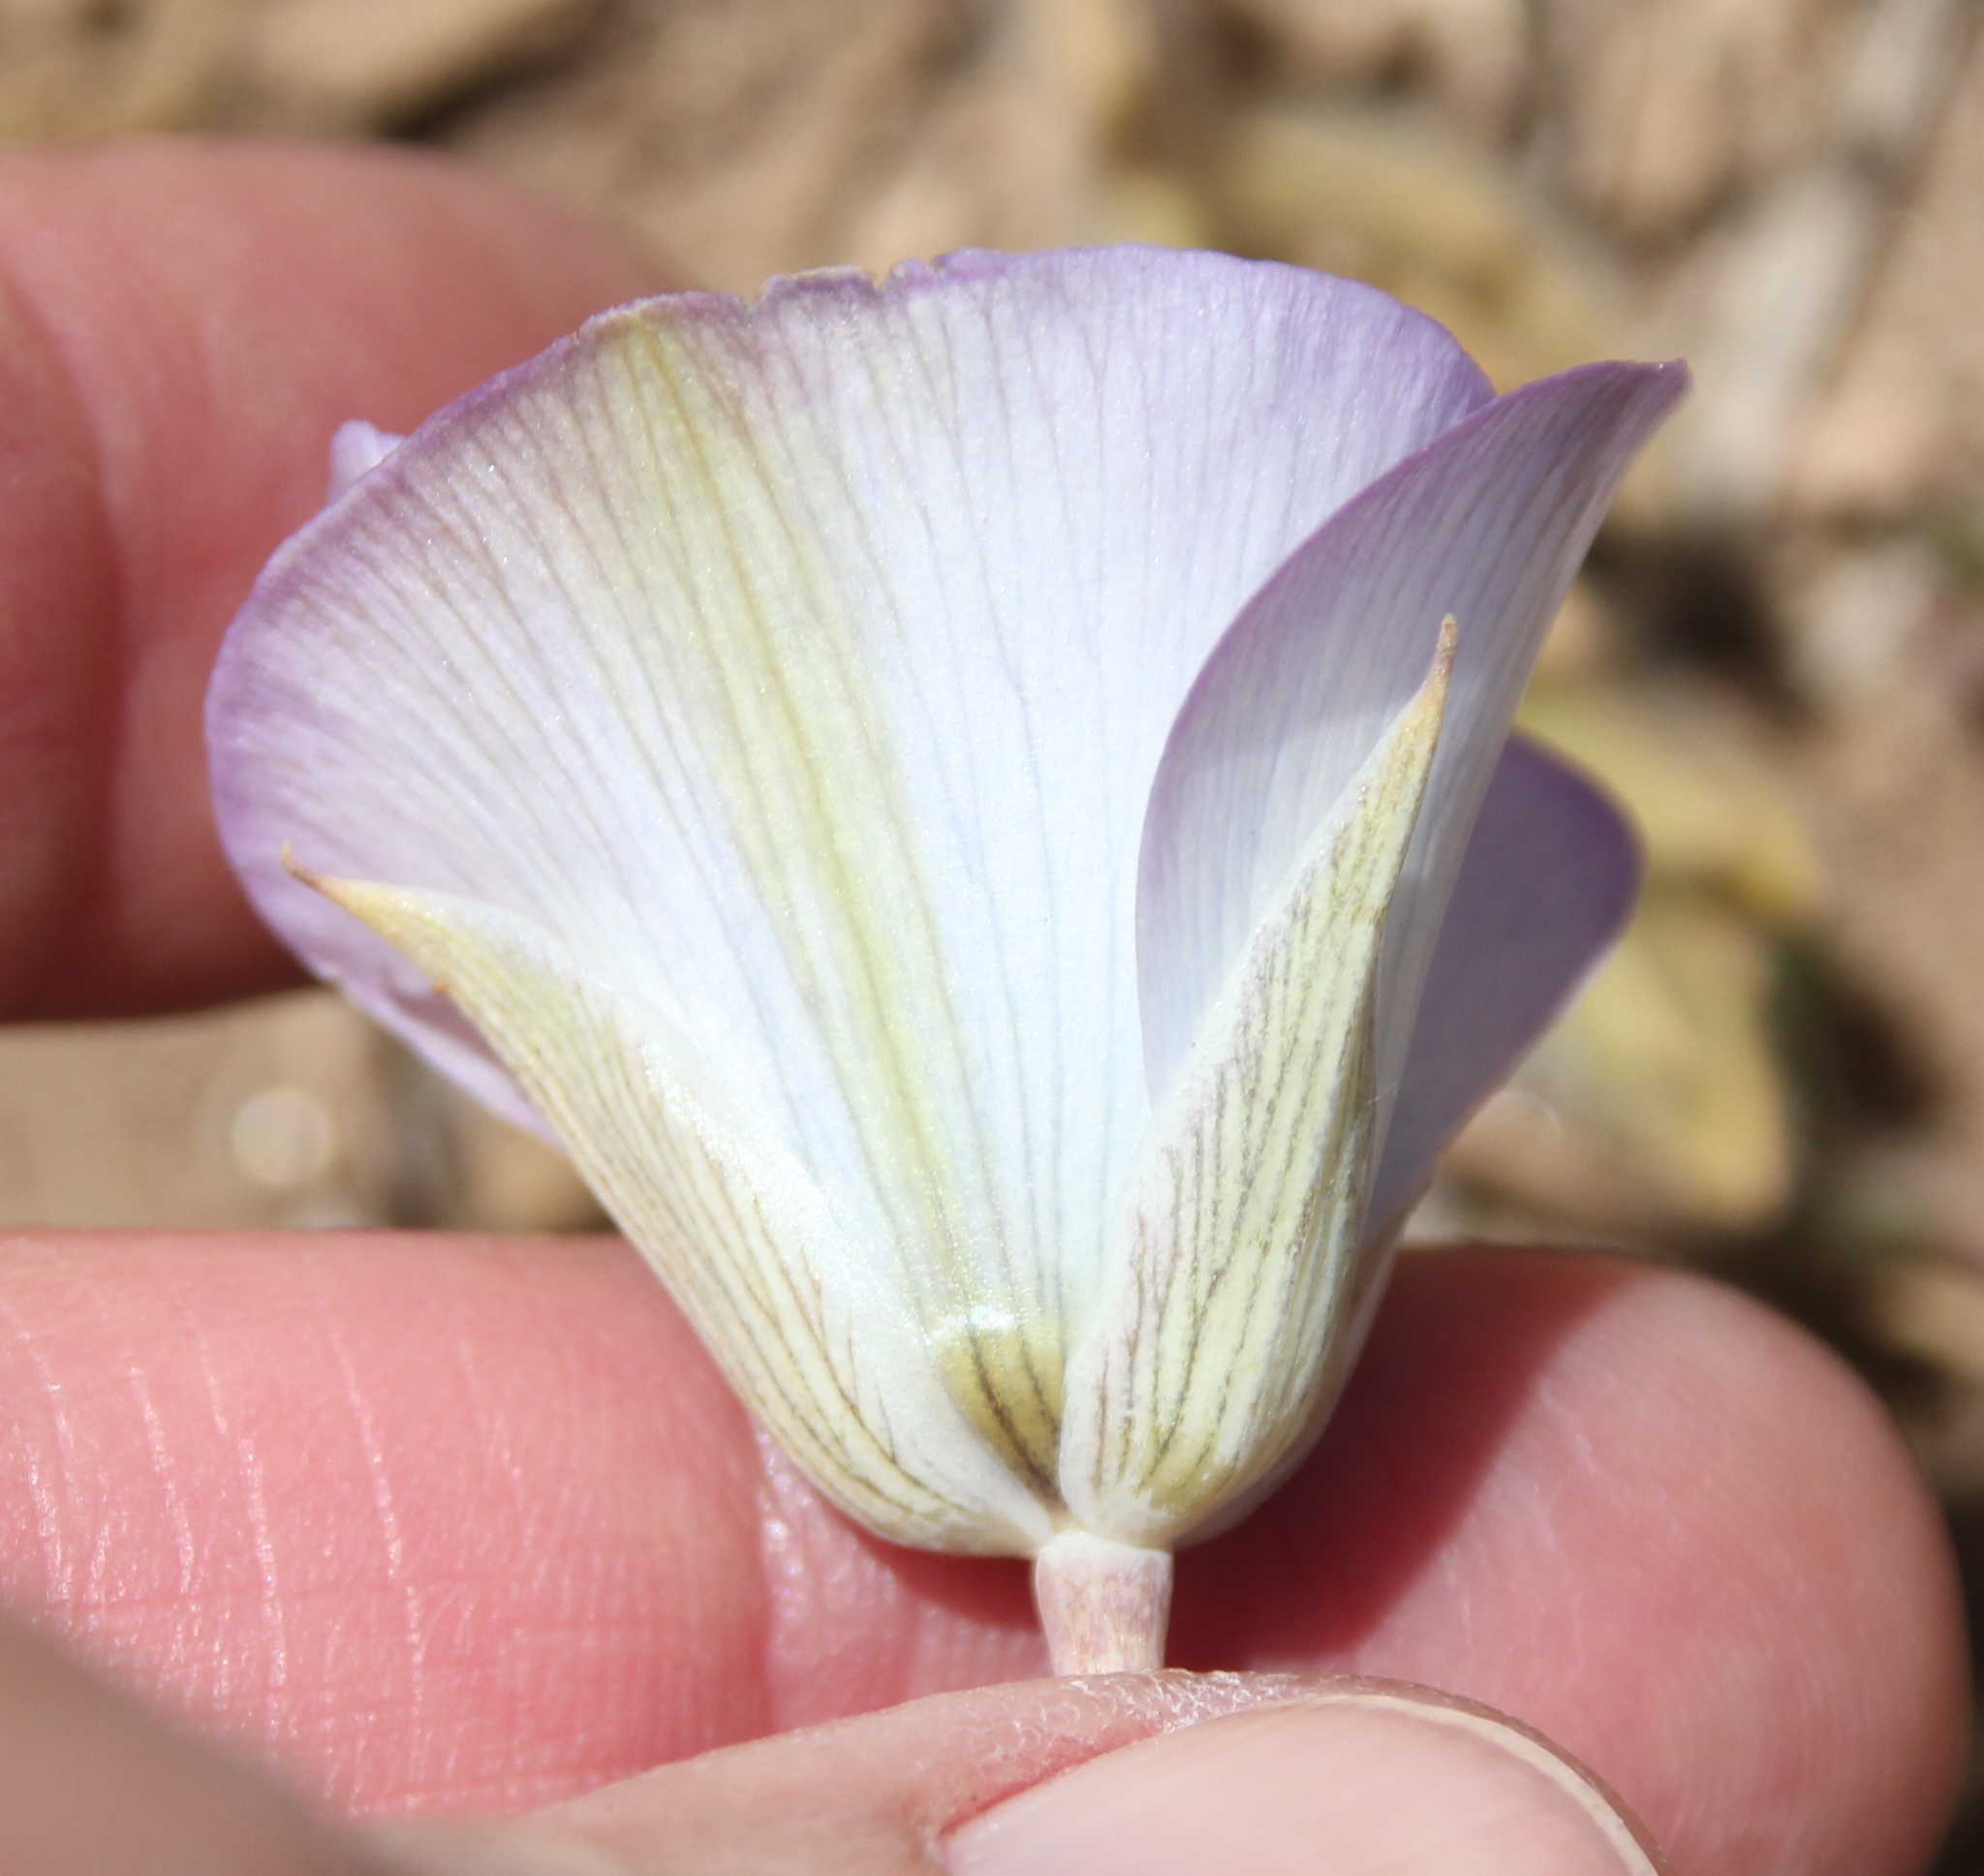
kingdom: Plantae
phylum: Tracheophyta
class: Liliopsida
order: Liliales
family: Liliaceae
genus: Calochortus
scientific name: Calochortus invenustus
